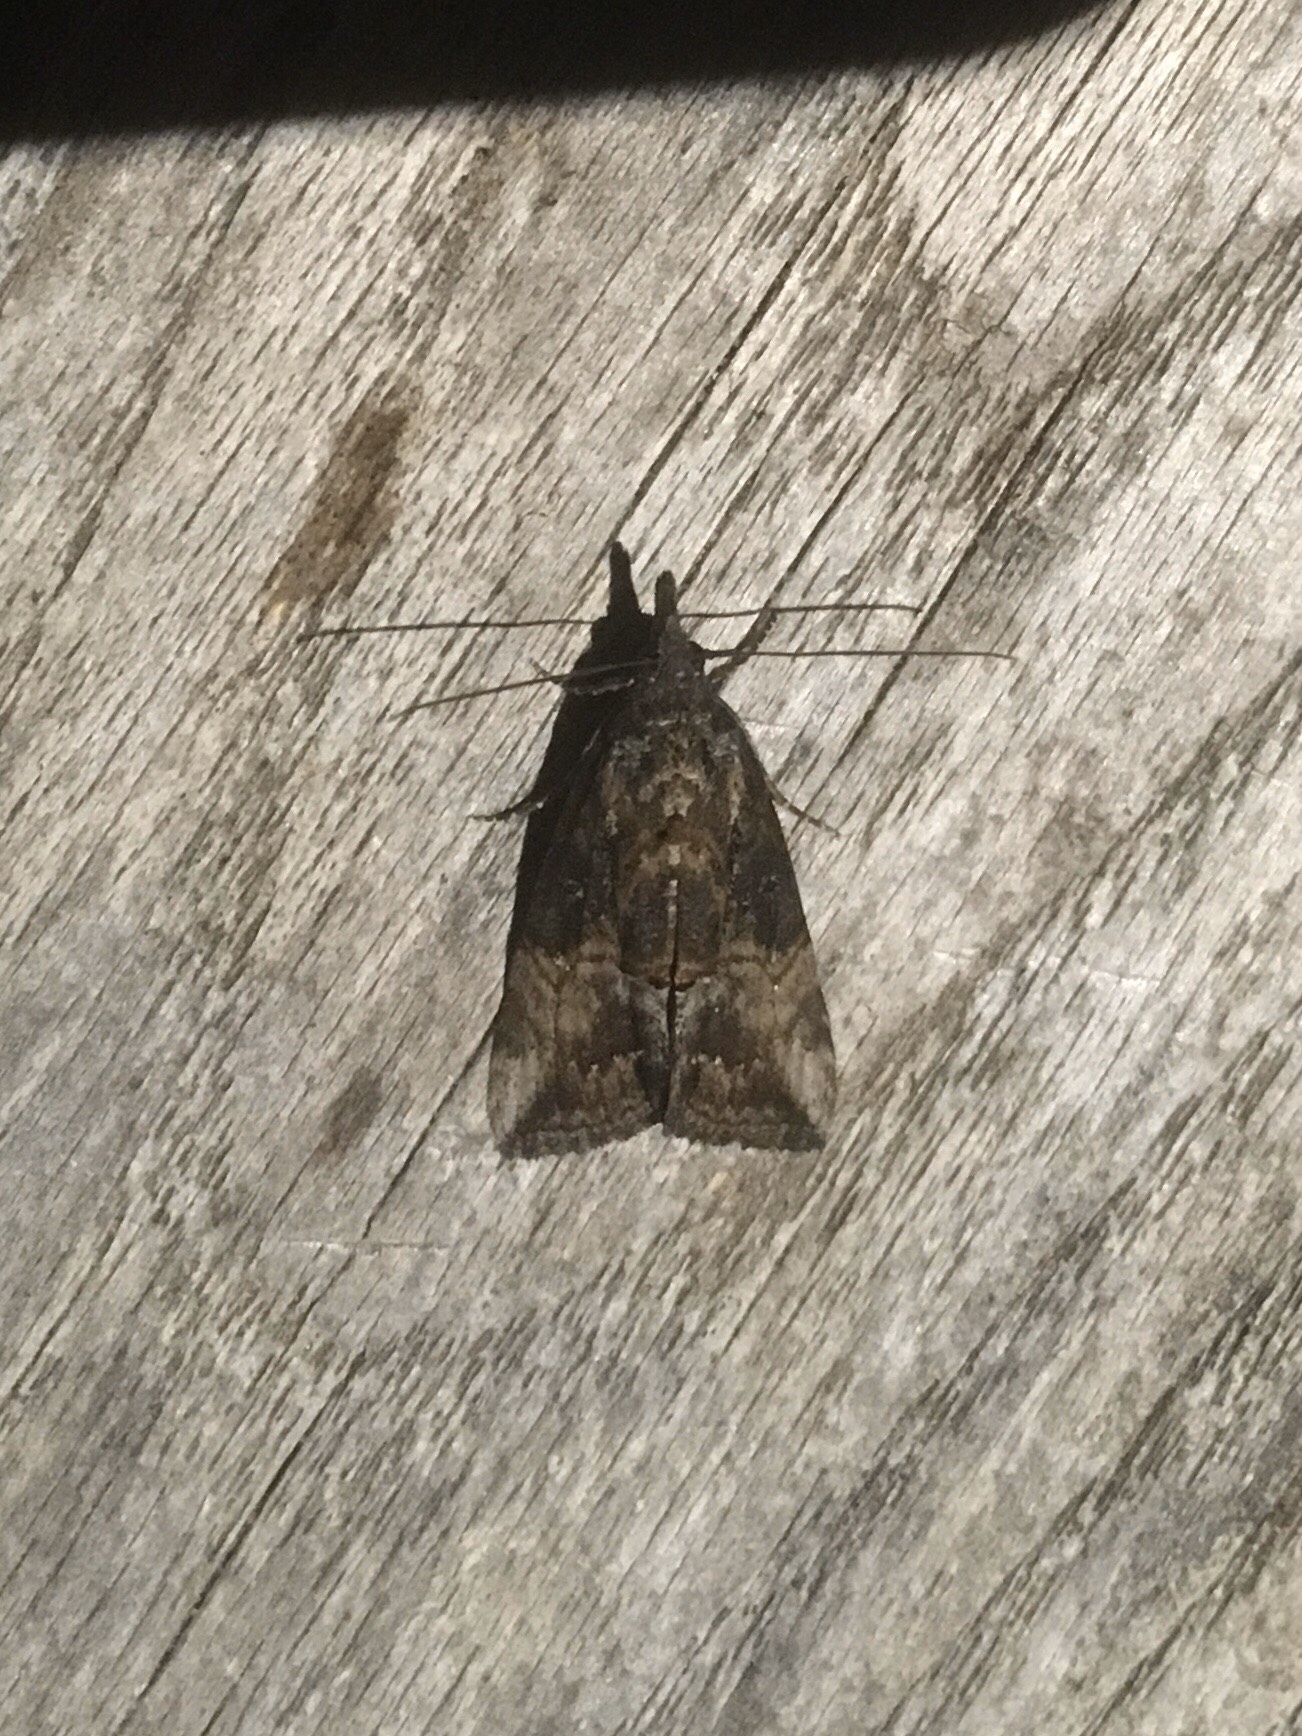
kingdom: Animalia
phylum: Arthropoda
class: Insecta
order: Lepidoptera
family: Erebidae
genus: Hypena
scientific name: Hypena scabra
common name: Green cloverworm
